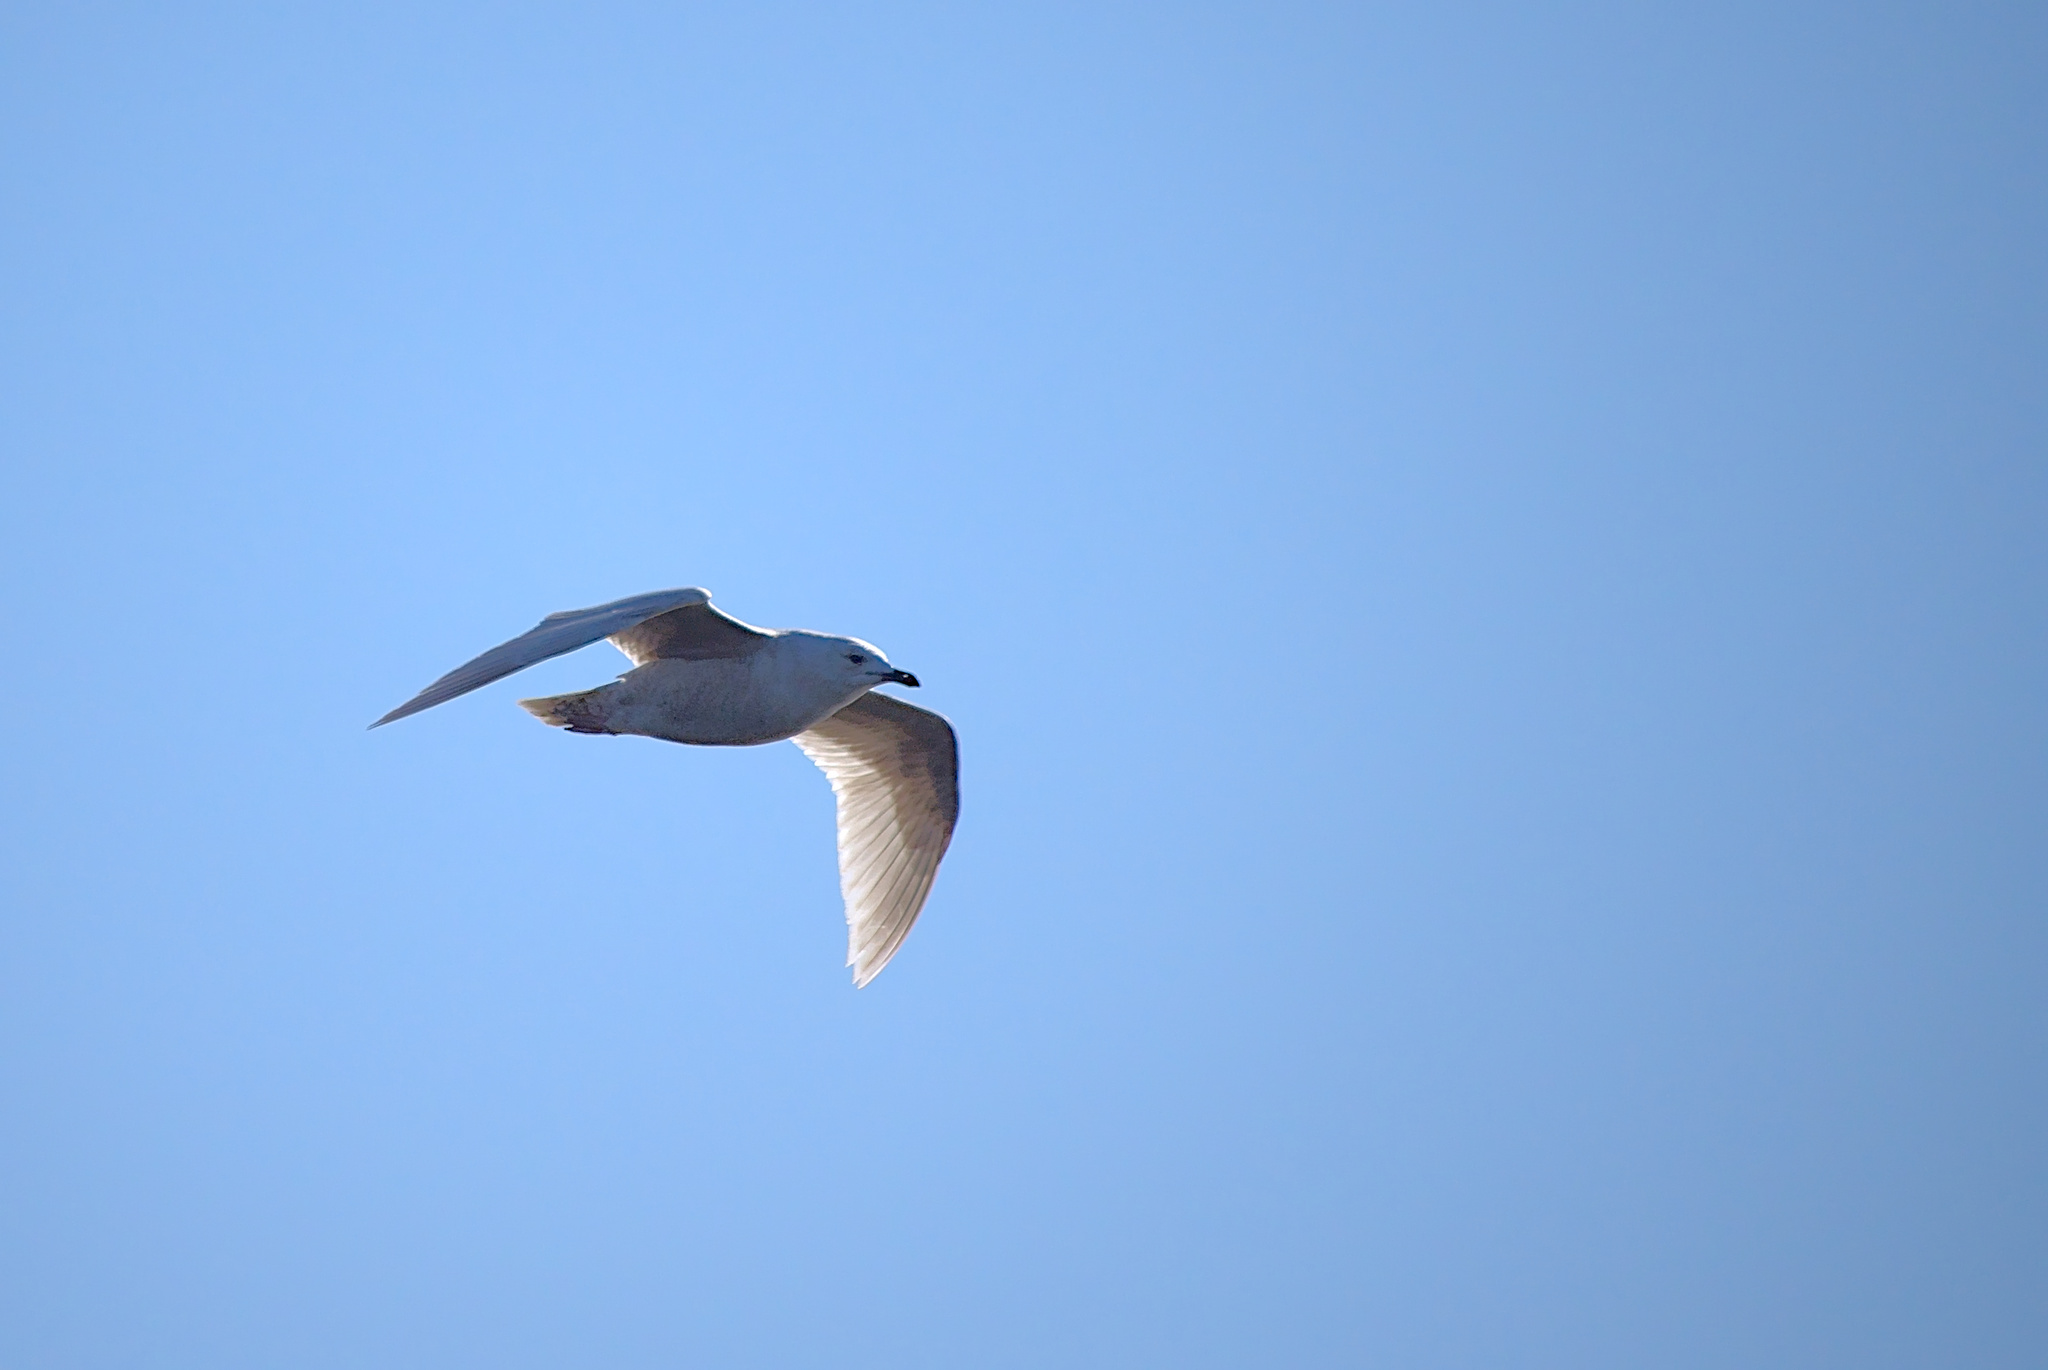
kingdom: Animalia
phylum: Chordata
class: Aves
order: Charadriiformes
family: Laridae
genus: Larus
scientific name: Larus glaucoides
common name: Iceland gull
